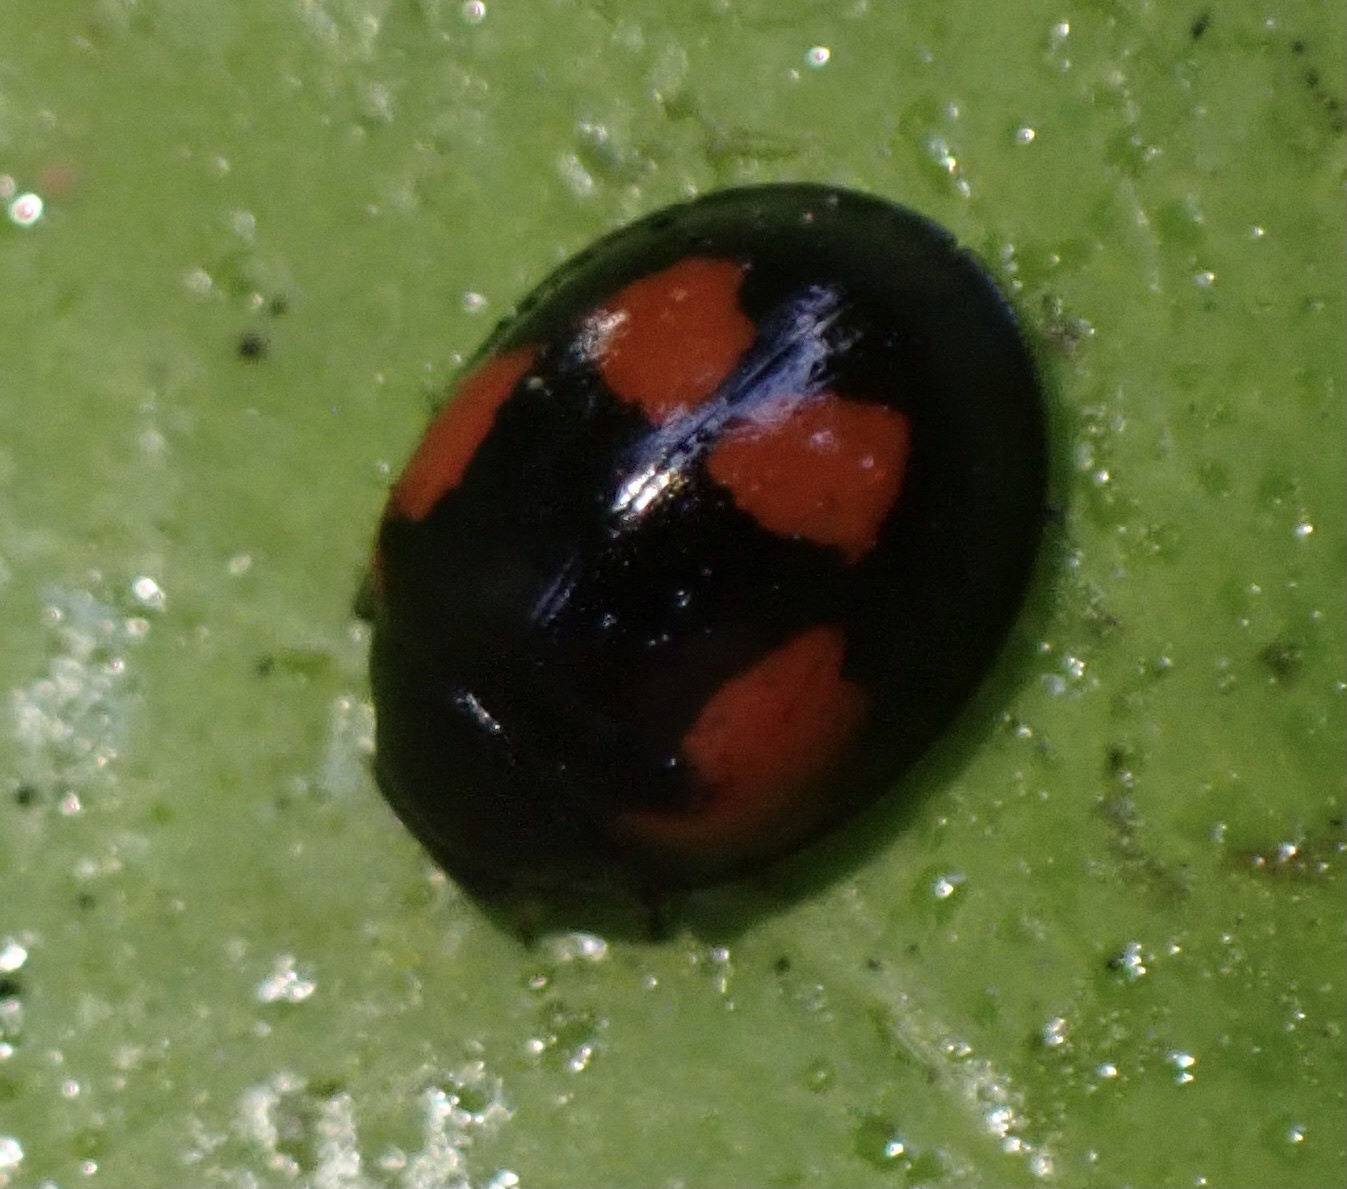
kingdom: Animalia
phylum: Arthropoda
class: Insecta
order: Coleoptera
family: Coccinellidae
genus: Brumus
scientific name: Brumus quadripustulatus
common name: Ladybird beetle
